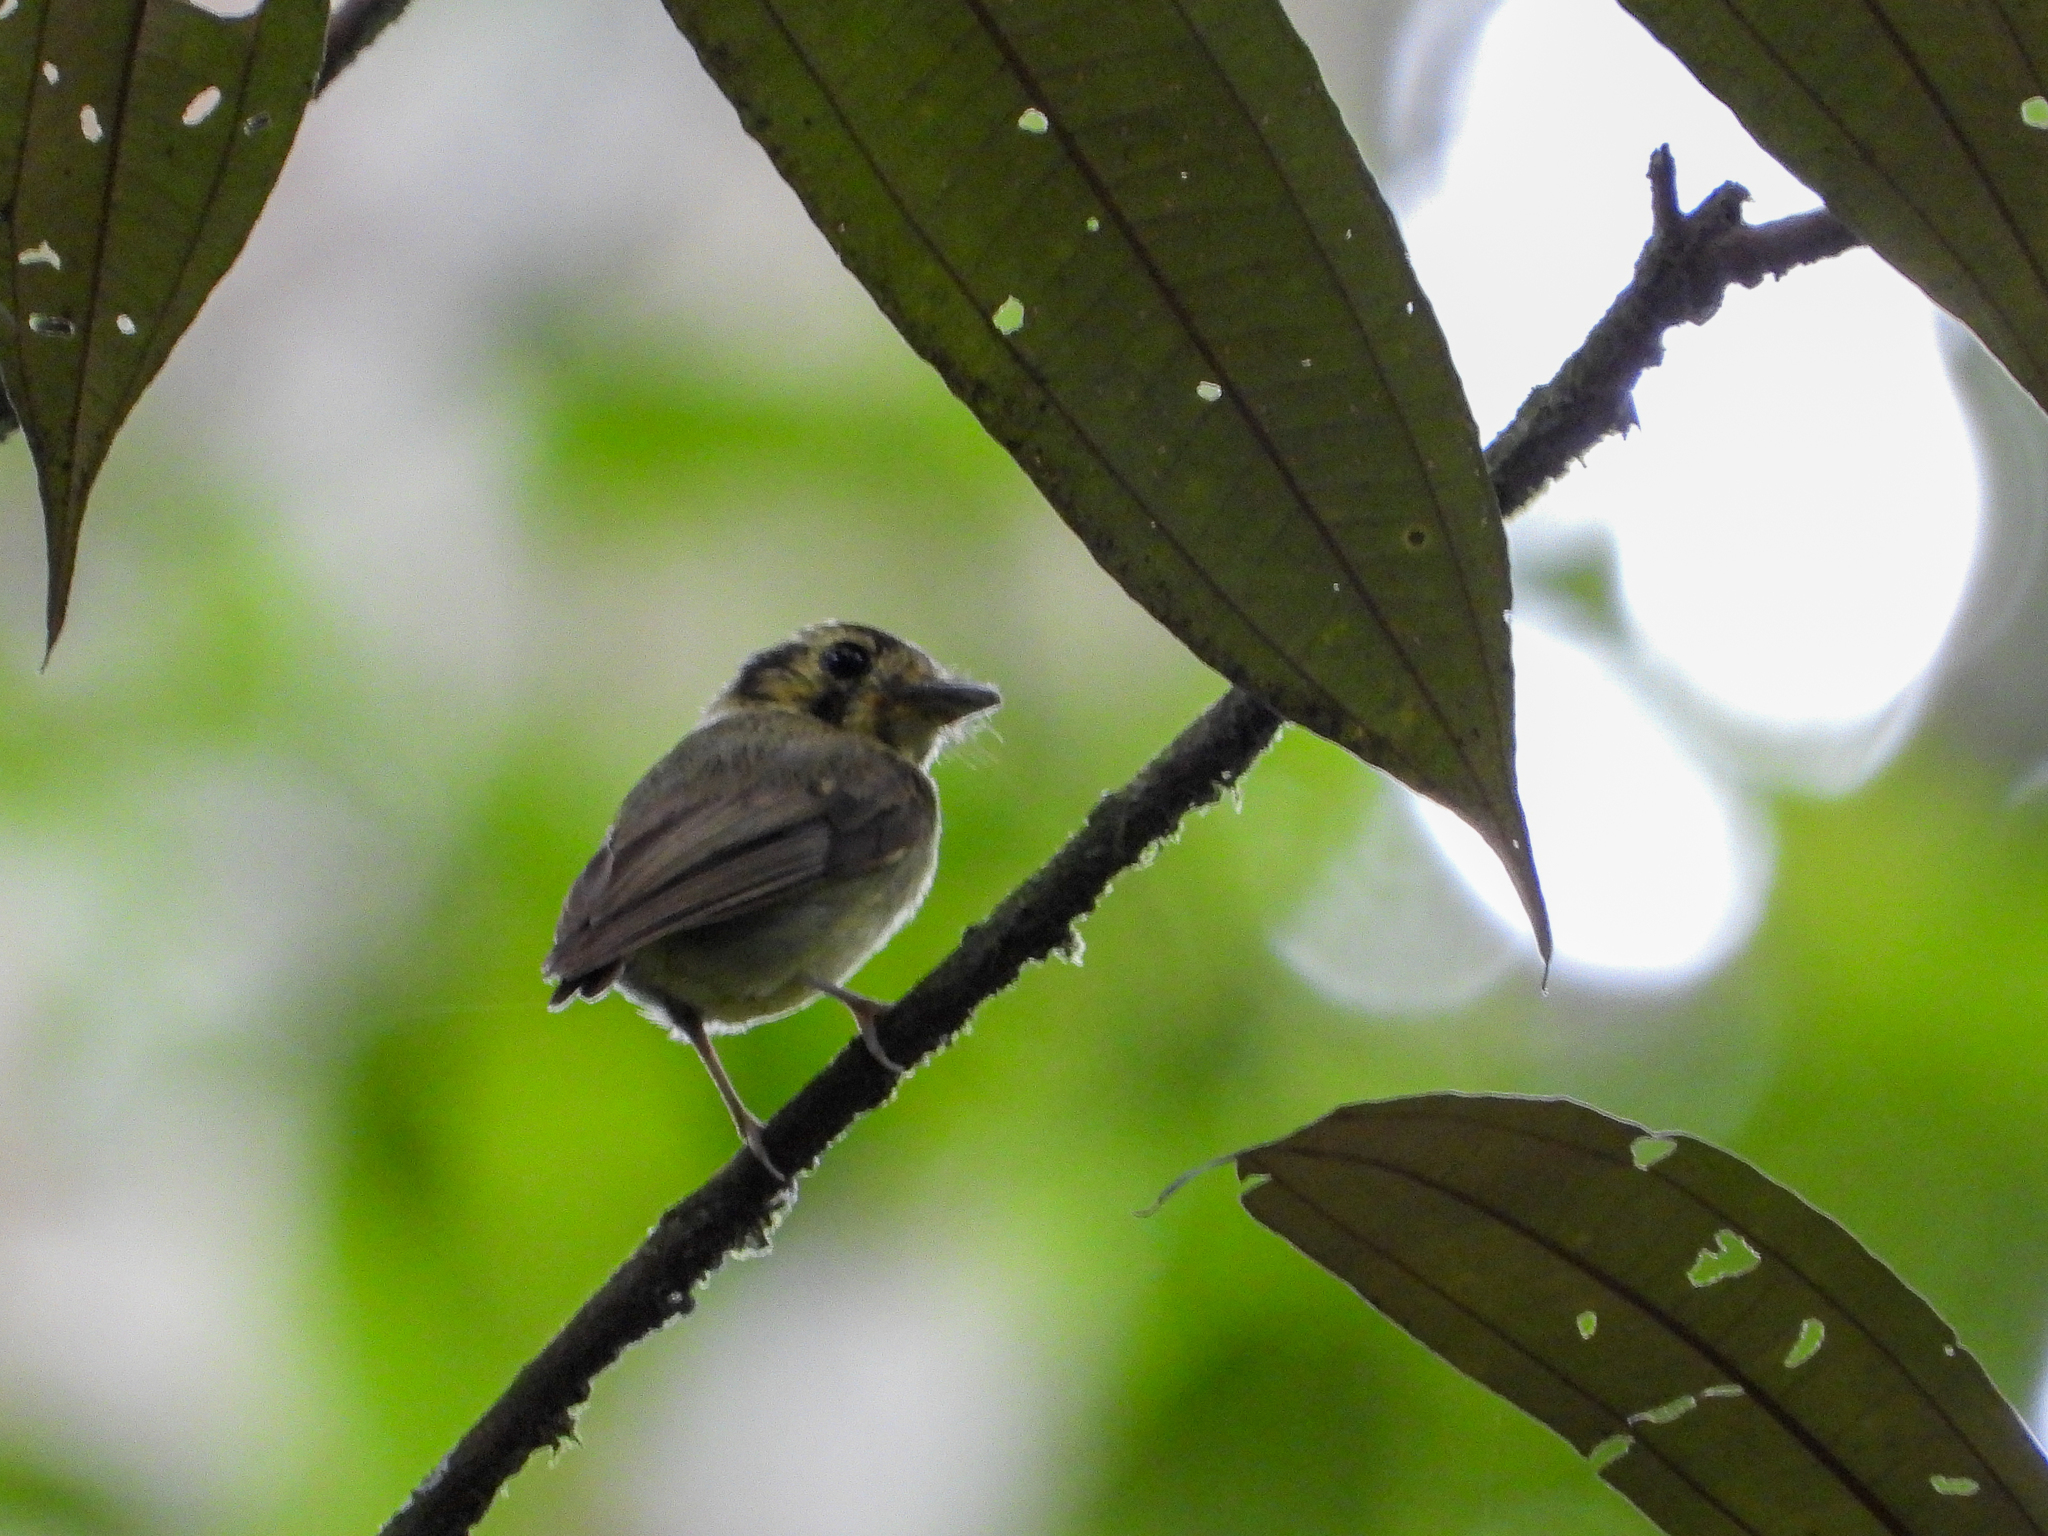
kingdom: Animalia
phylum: Chordata
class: Aves
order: Passeriformes
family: Tyrannidae
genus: Platyrinchus
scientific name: Platyrinchus coronatus
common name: Golden-crowned spadebill
